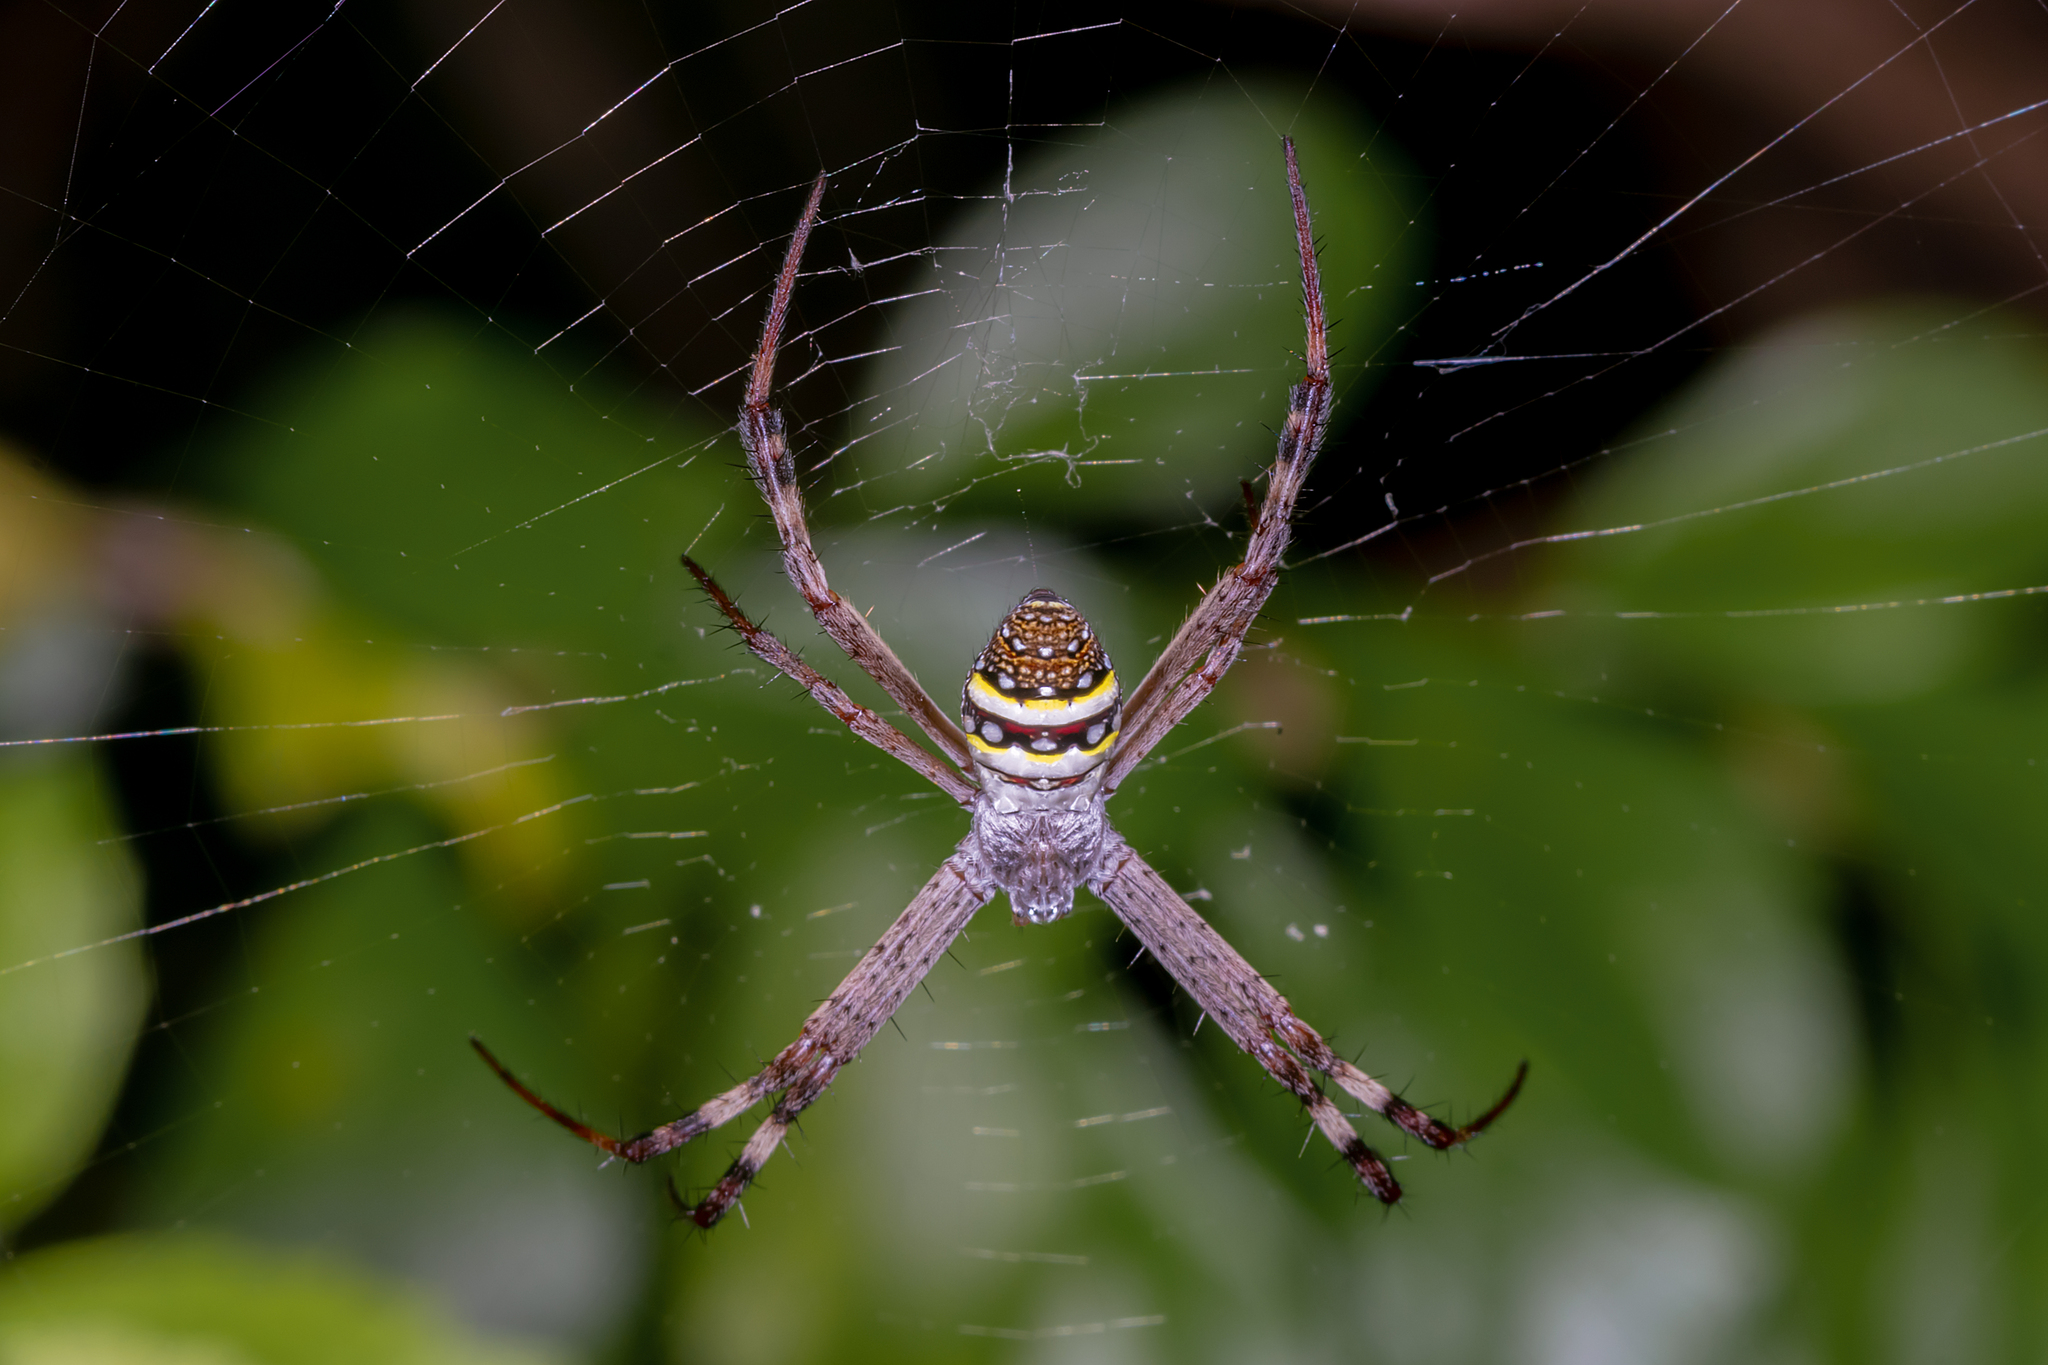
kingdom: Animalia
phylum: Arthropoda
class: Arachnida
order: Araneae
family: Araneidae
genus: Argiope
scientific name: Argiope keyserlingi
